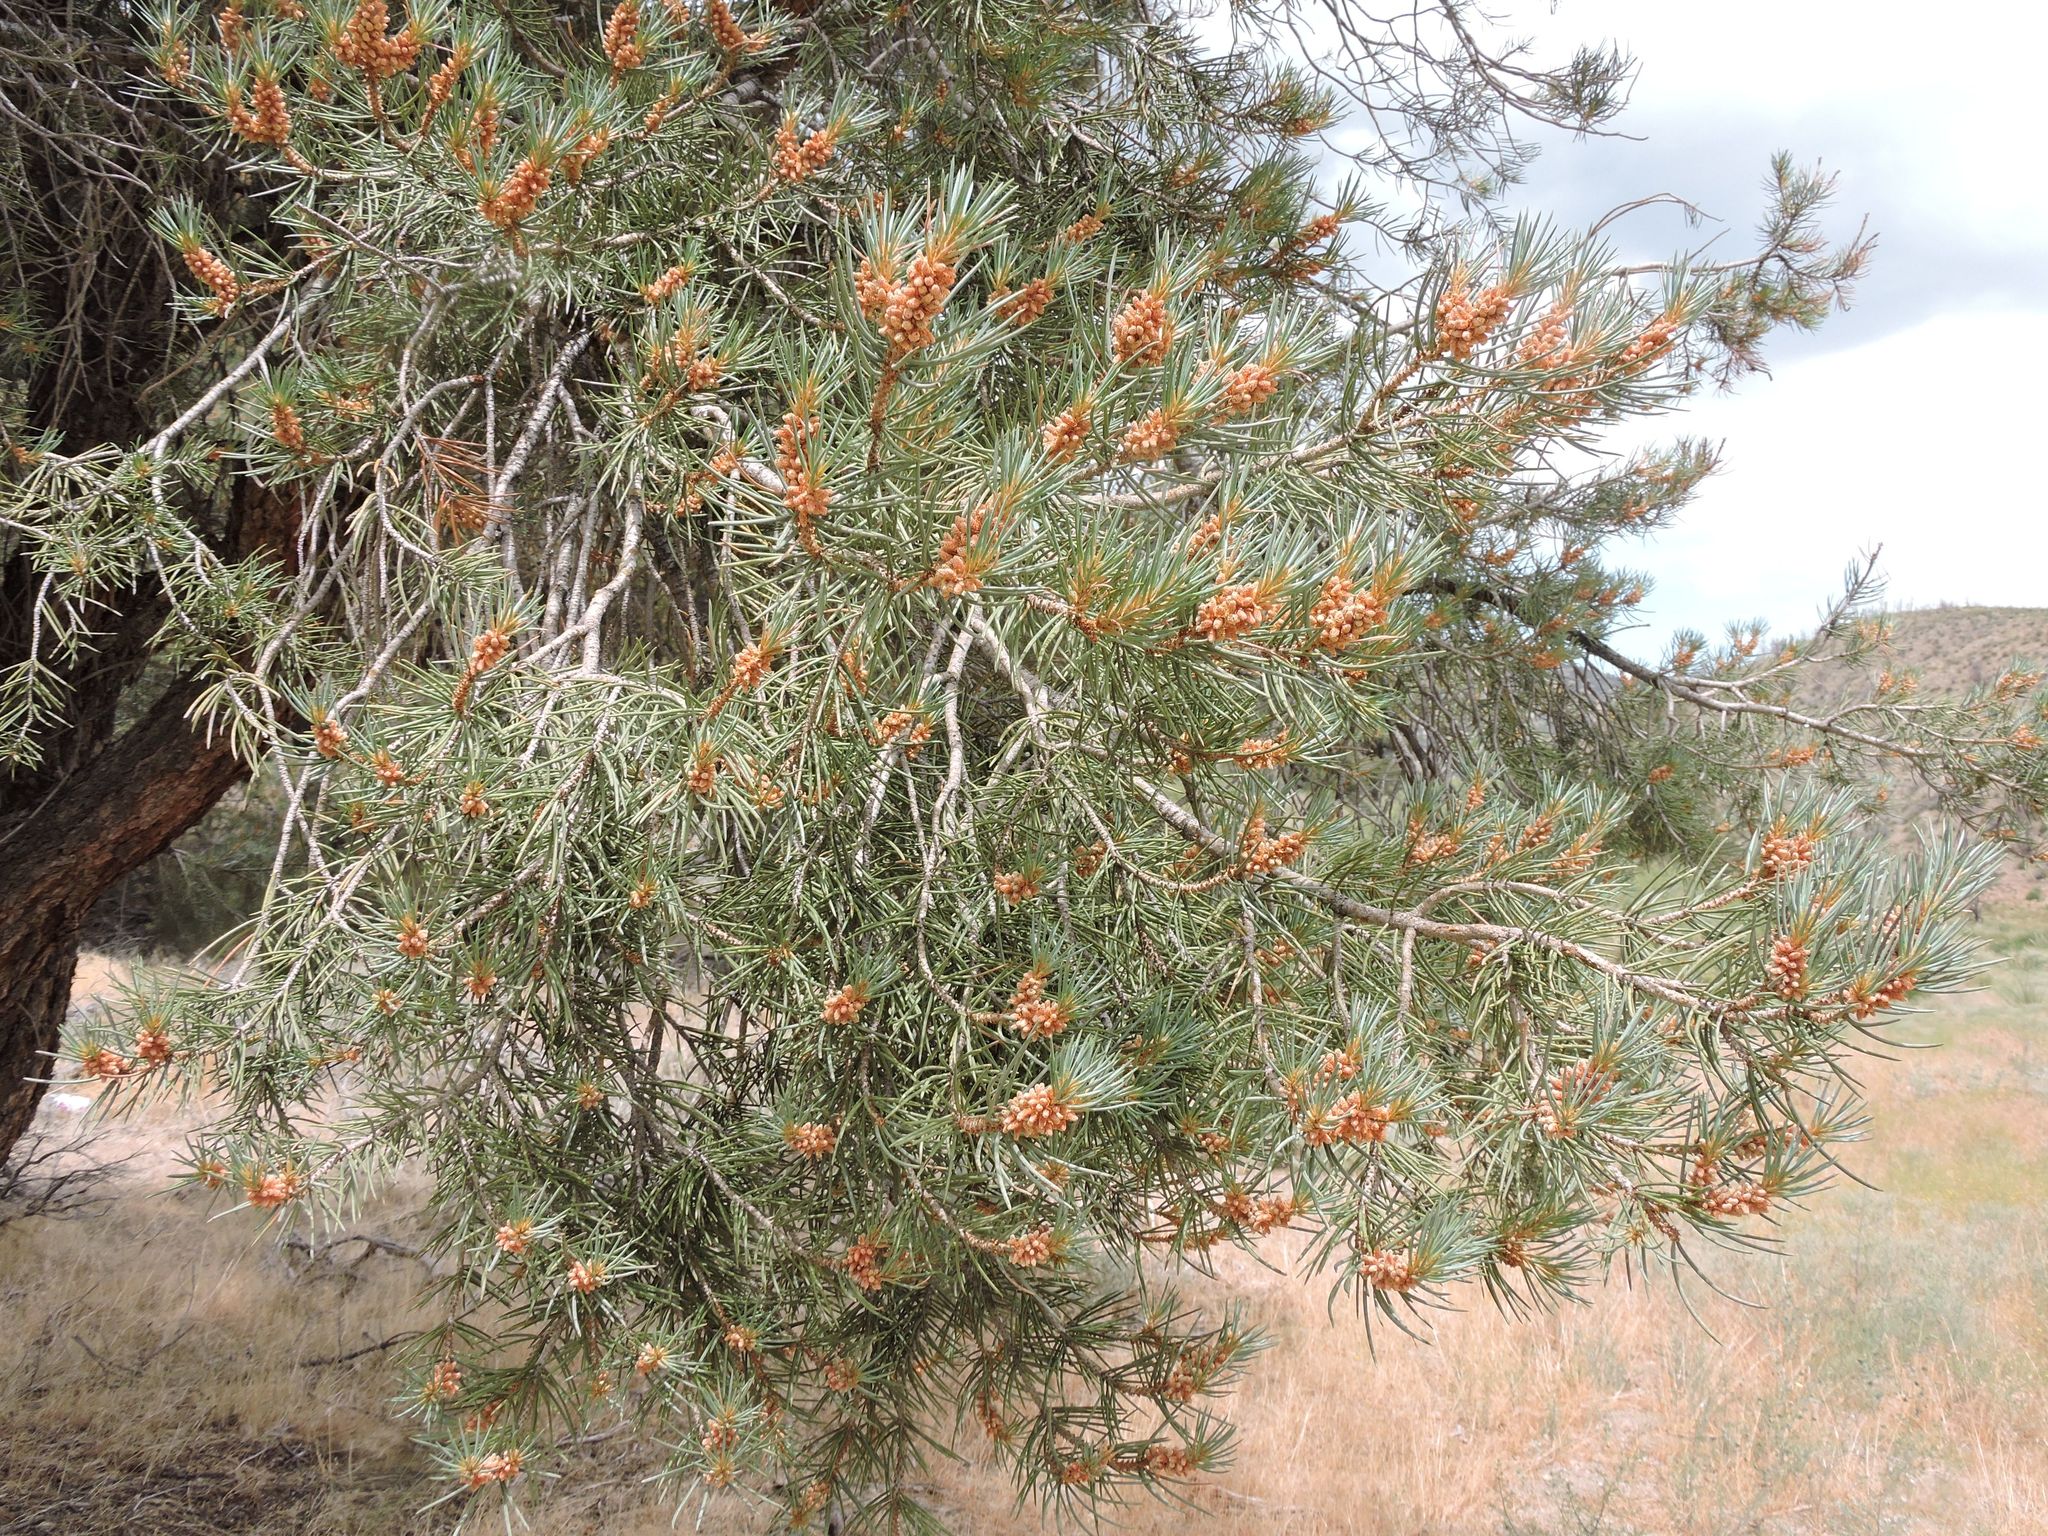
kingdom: Plantae
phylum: Tracheophyta
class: Pinopsida
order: Pinales
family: Pinaceae
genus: Pinus
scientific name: Pinus monophylla
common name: One-leaved nut pine
